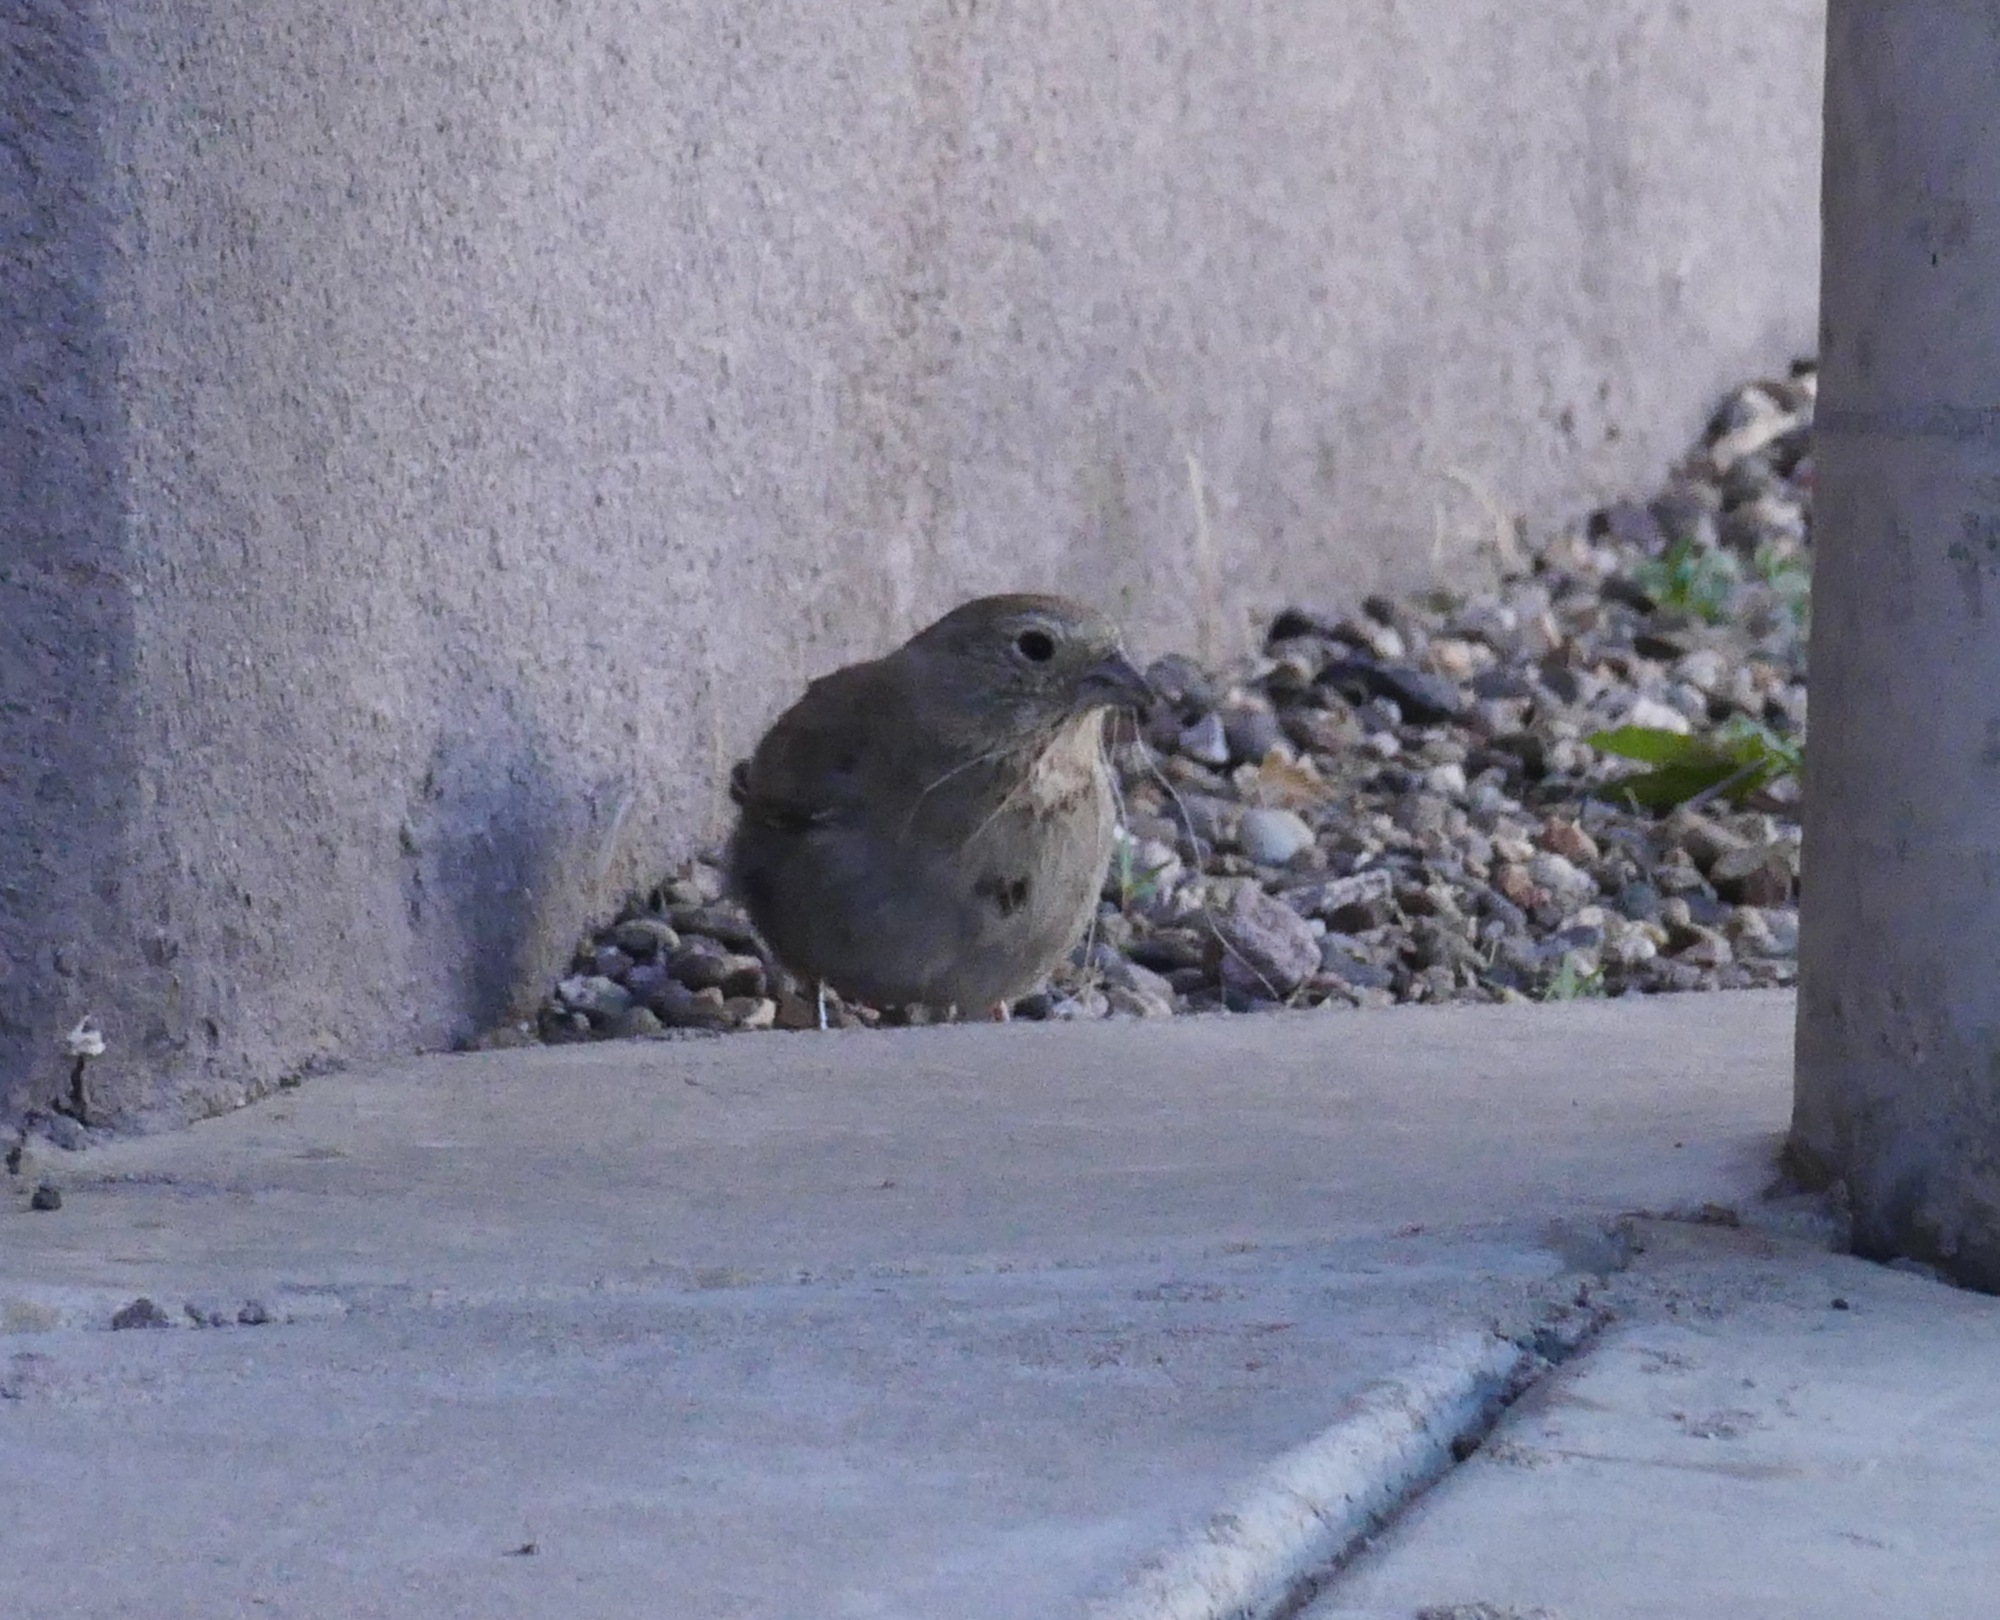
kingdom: Animalia
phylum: Chordata
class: Aves
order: Passeriformes
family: Passerellidae
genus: Melozone
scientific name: Melozone fusca
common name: Canyon towhee
